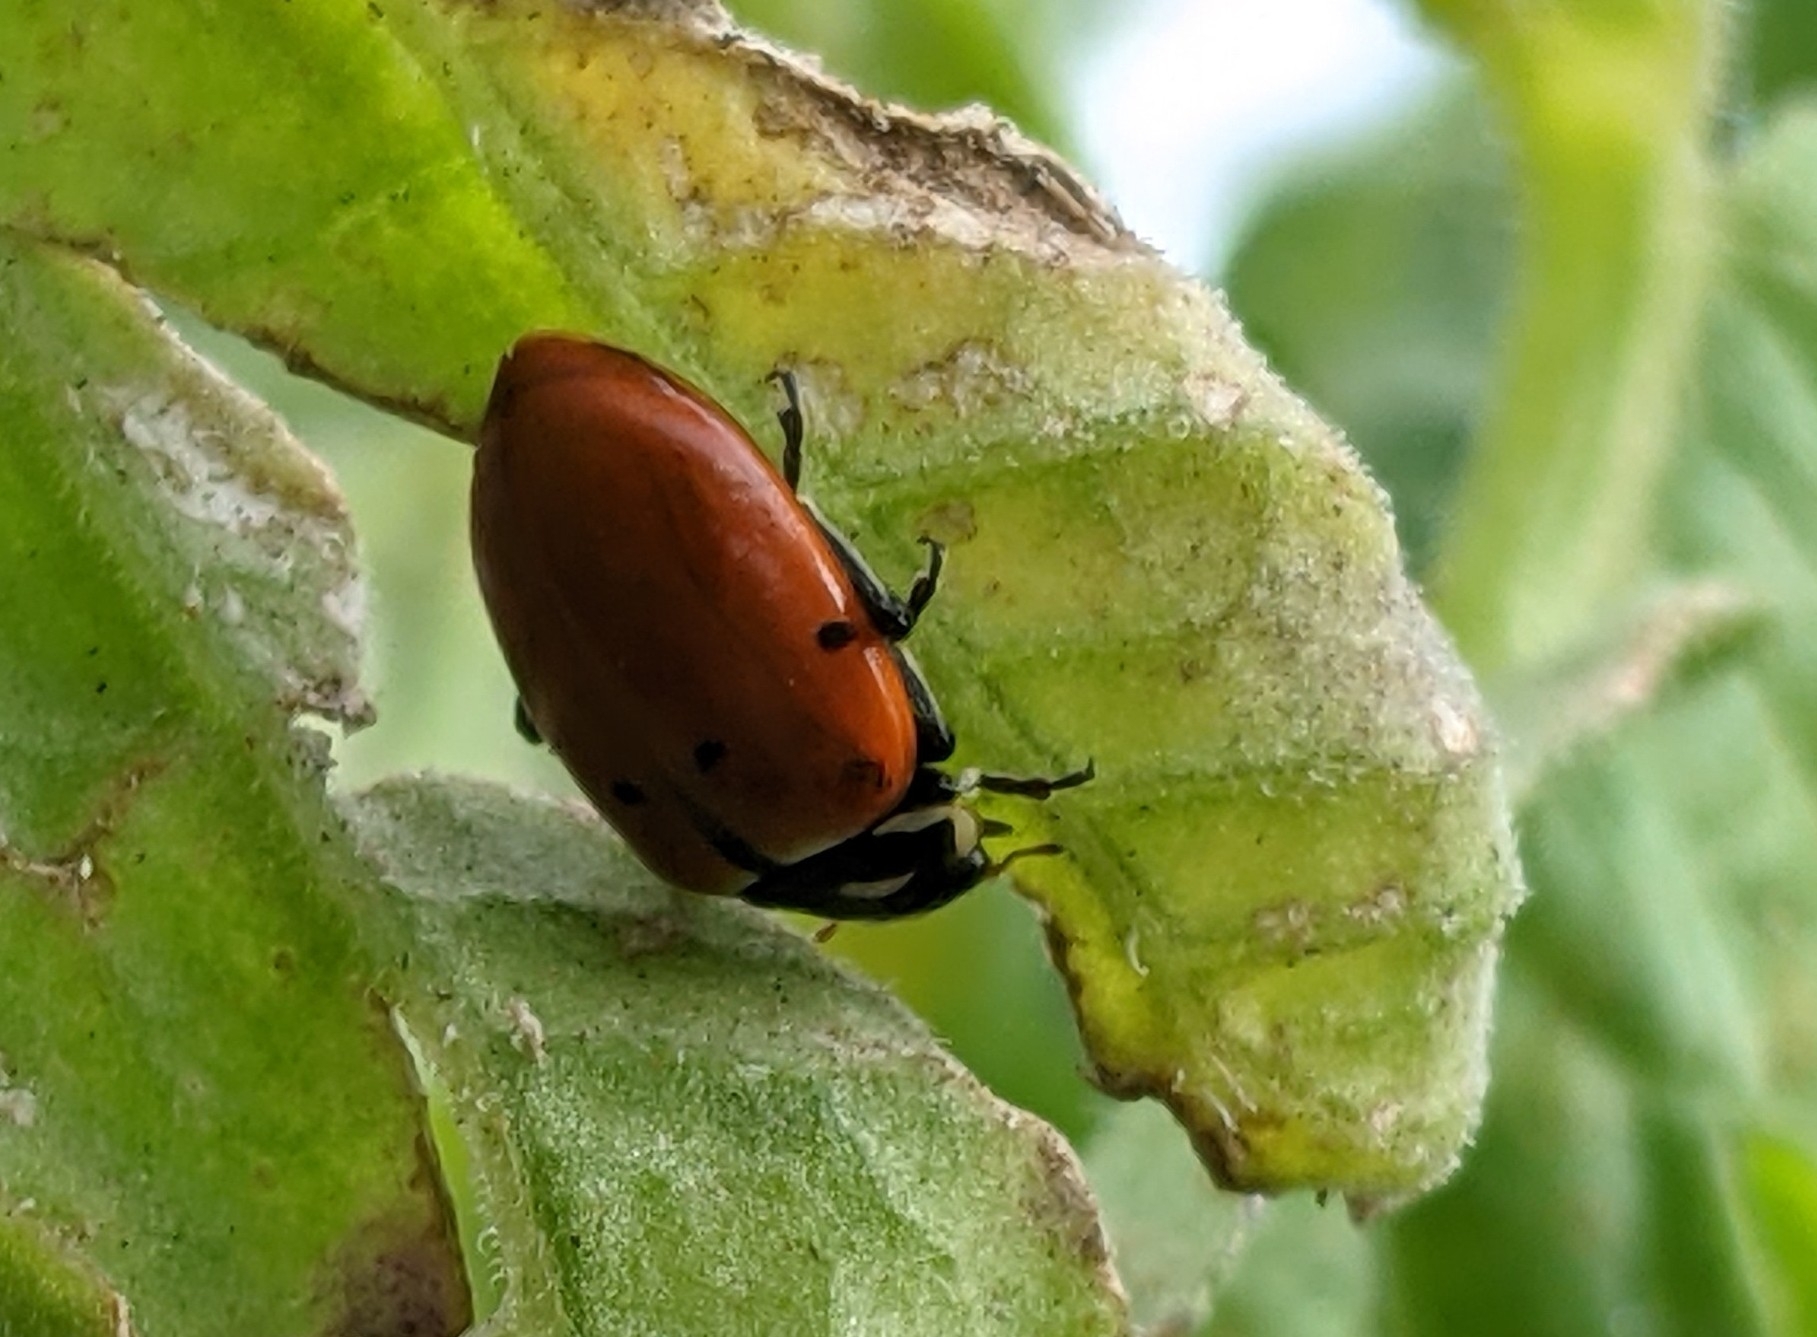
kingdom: Animalia
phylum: Arthropoda
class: Insecta
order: Coleoptera
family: Coccinellidae
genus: Hippodamia
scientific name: Hippodamia convergens
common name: Convergent lady beetle
